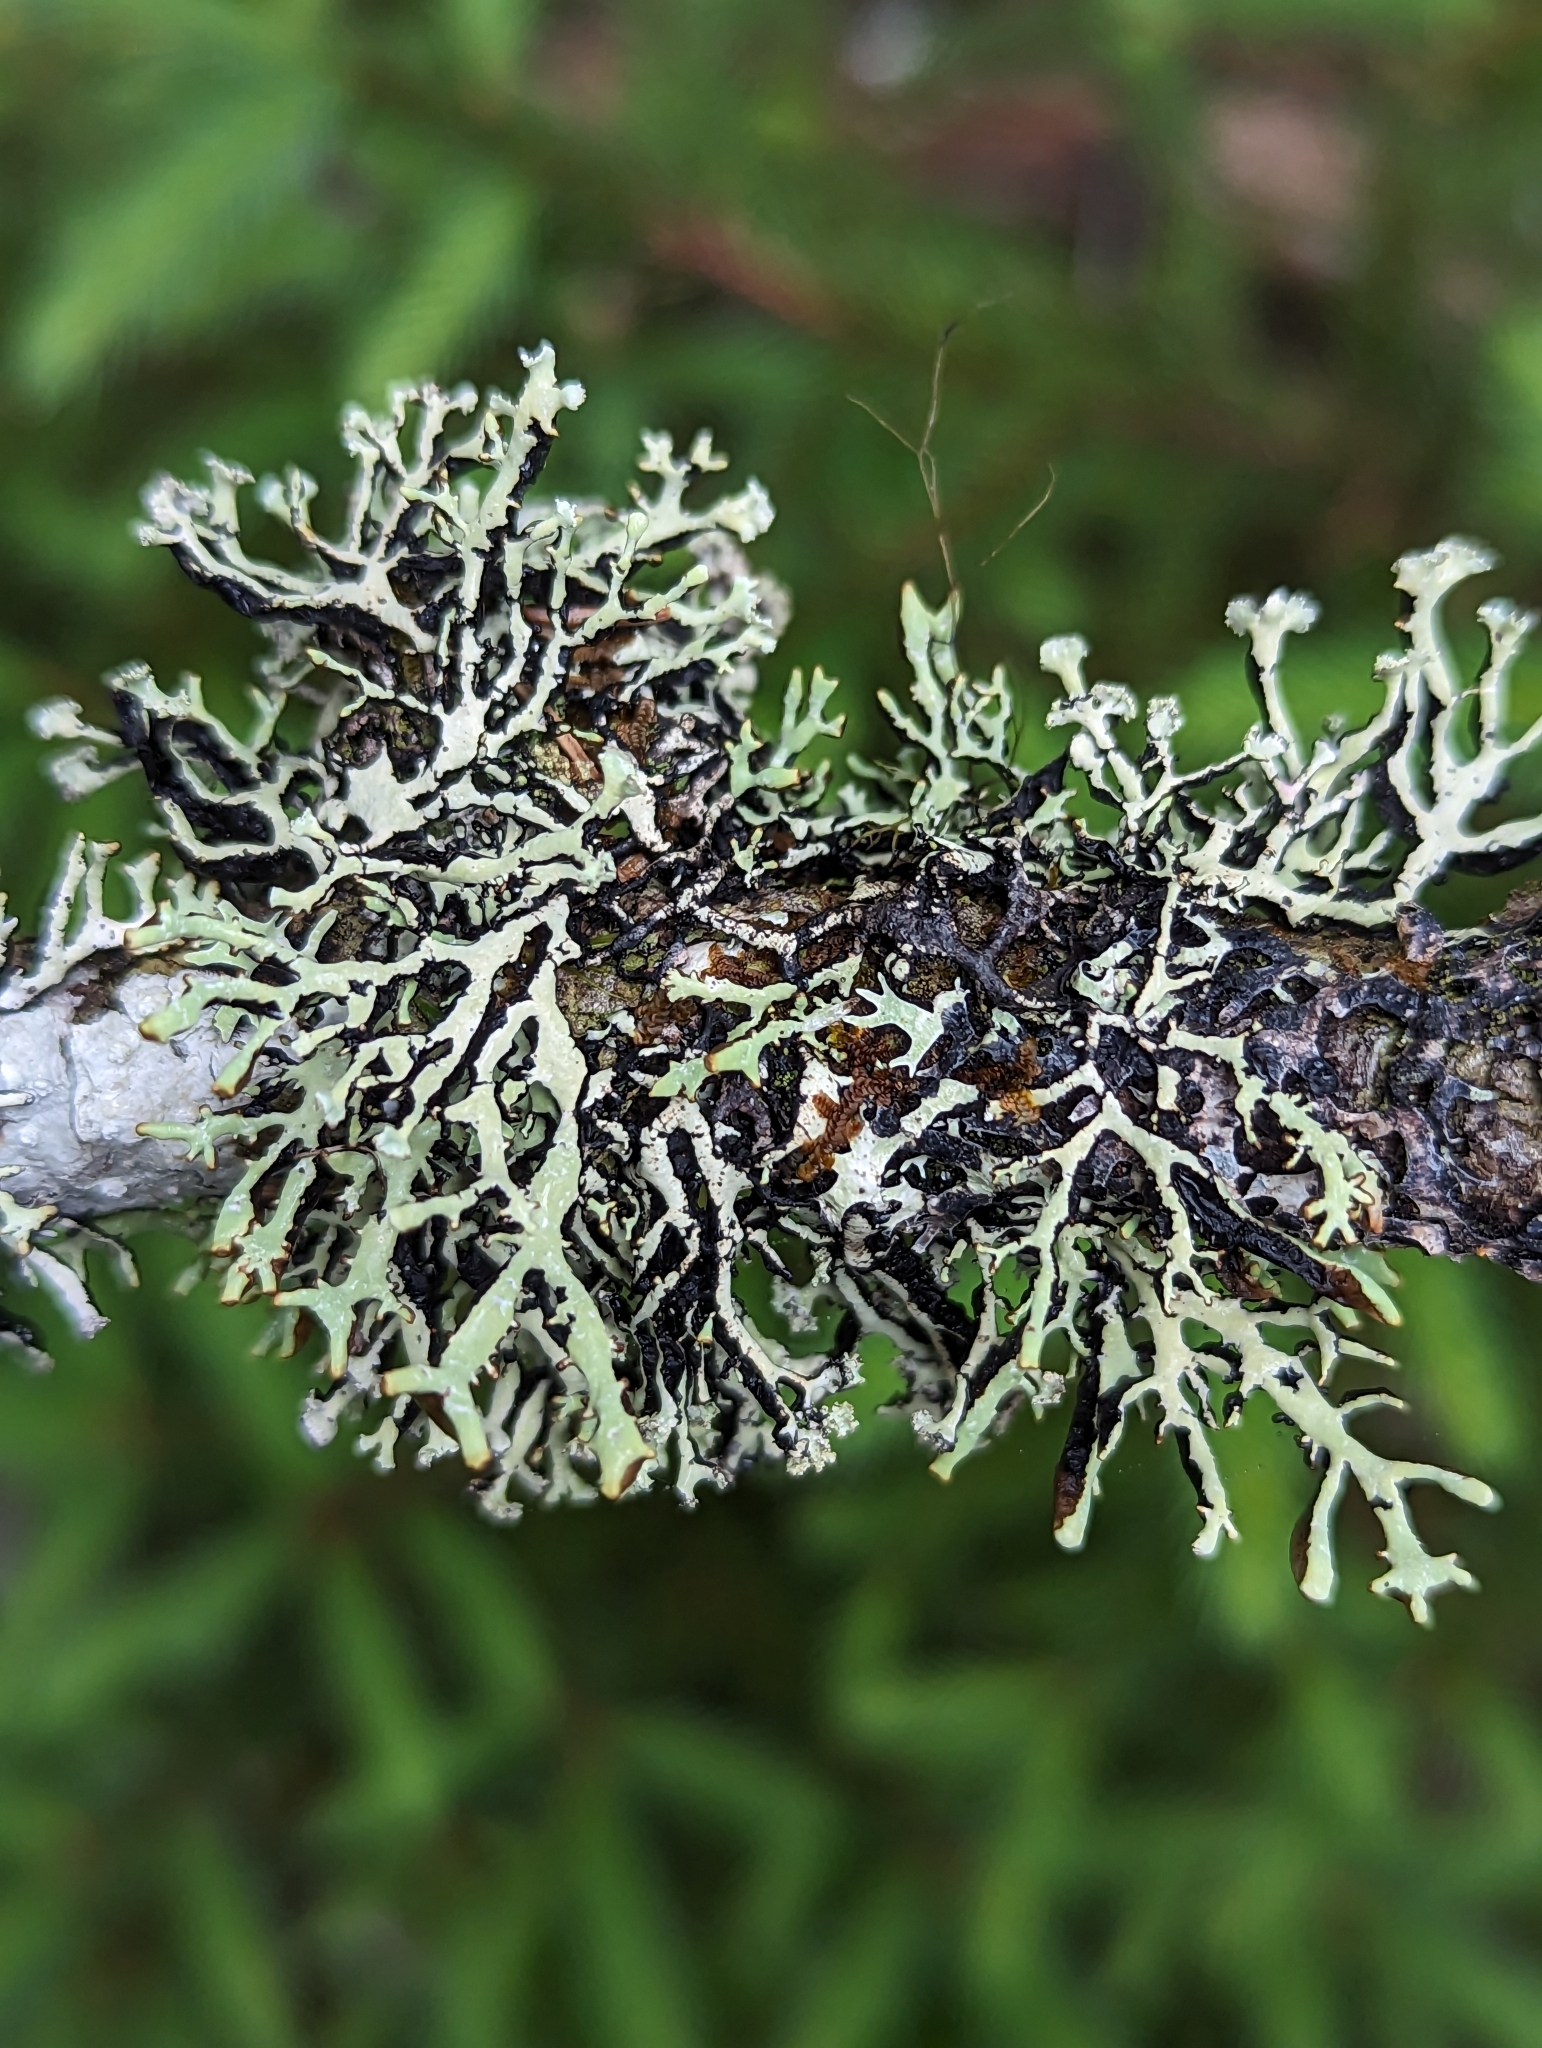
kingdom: Fungi
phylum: Ascomycota
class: Lecanoromycetes
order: Lecanorales
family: Parmeliaceae
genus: Hypogymnia
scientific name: Hypogymnia vittata
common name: Brownish monk's-hood lichen
